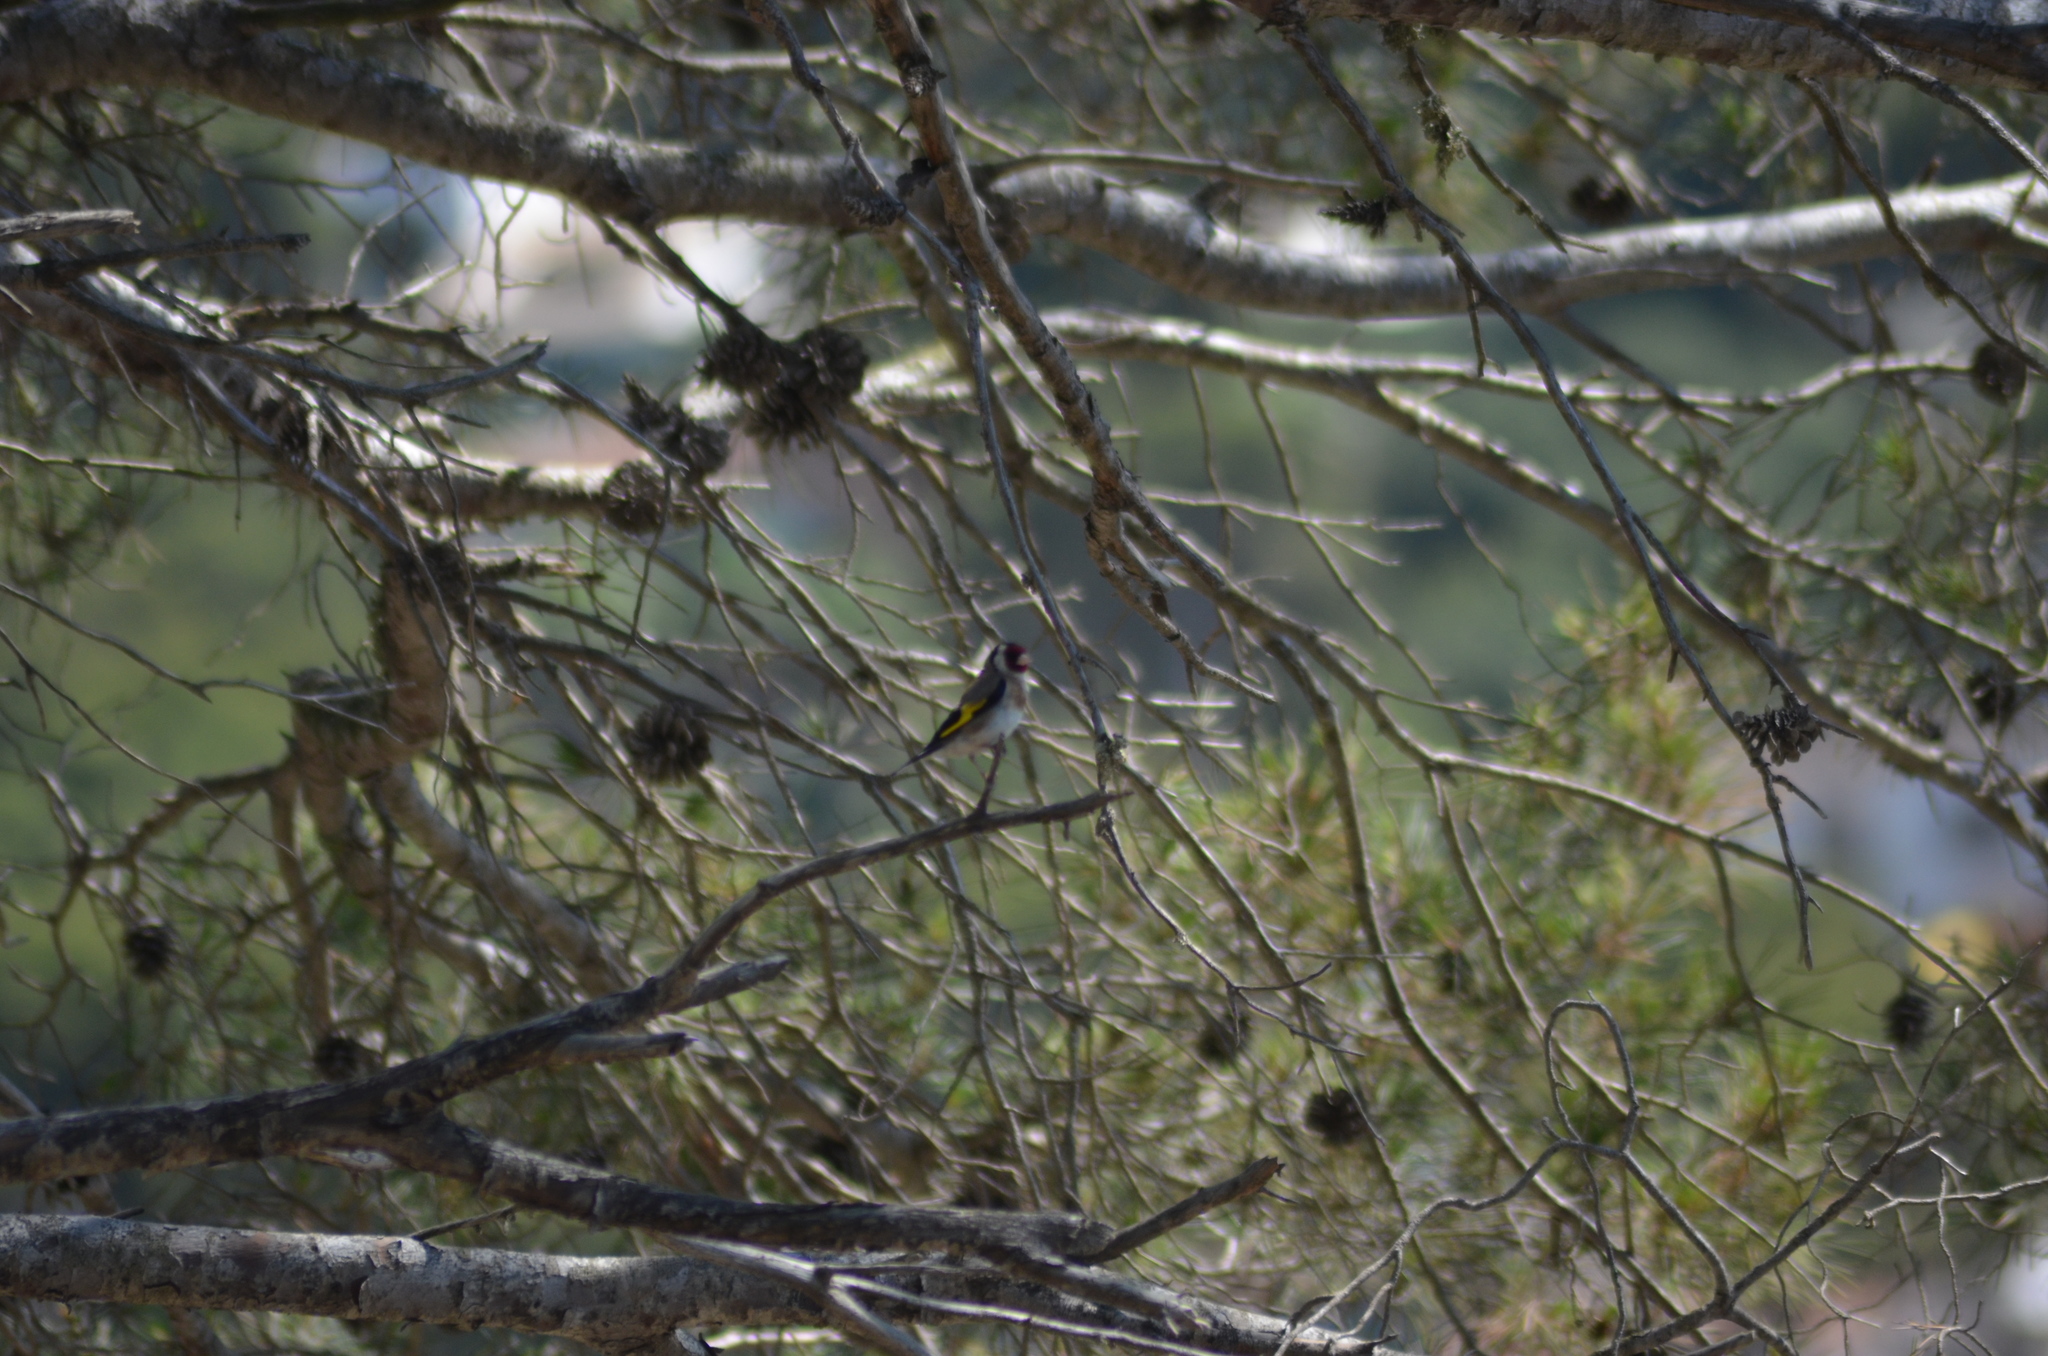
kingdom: Animalia
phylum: Chordata
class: Aves
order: Passeriformes
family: Fringillidae
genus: Carduelis
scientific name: Carduelis carduelis
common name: European goldfinch
